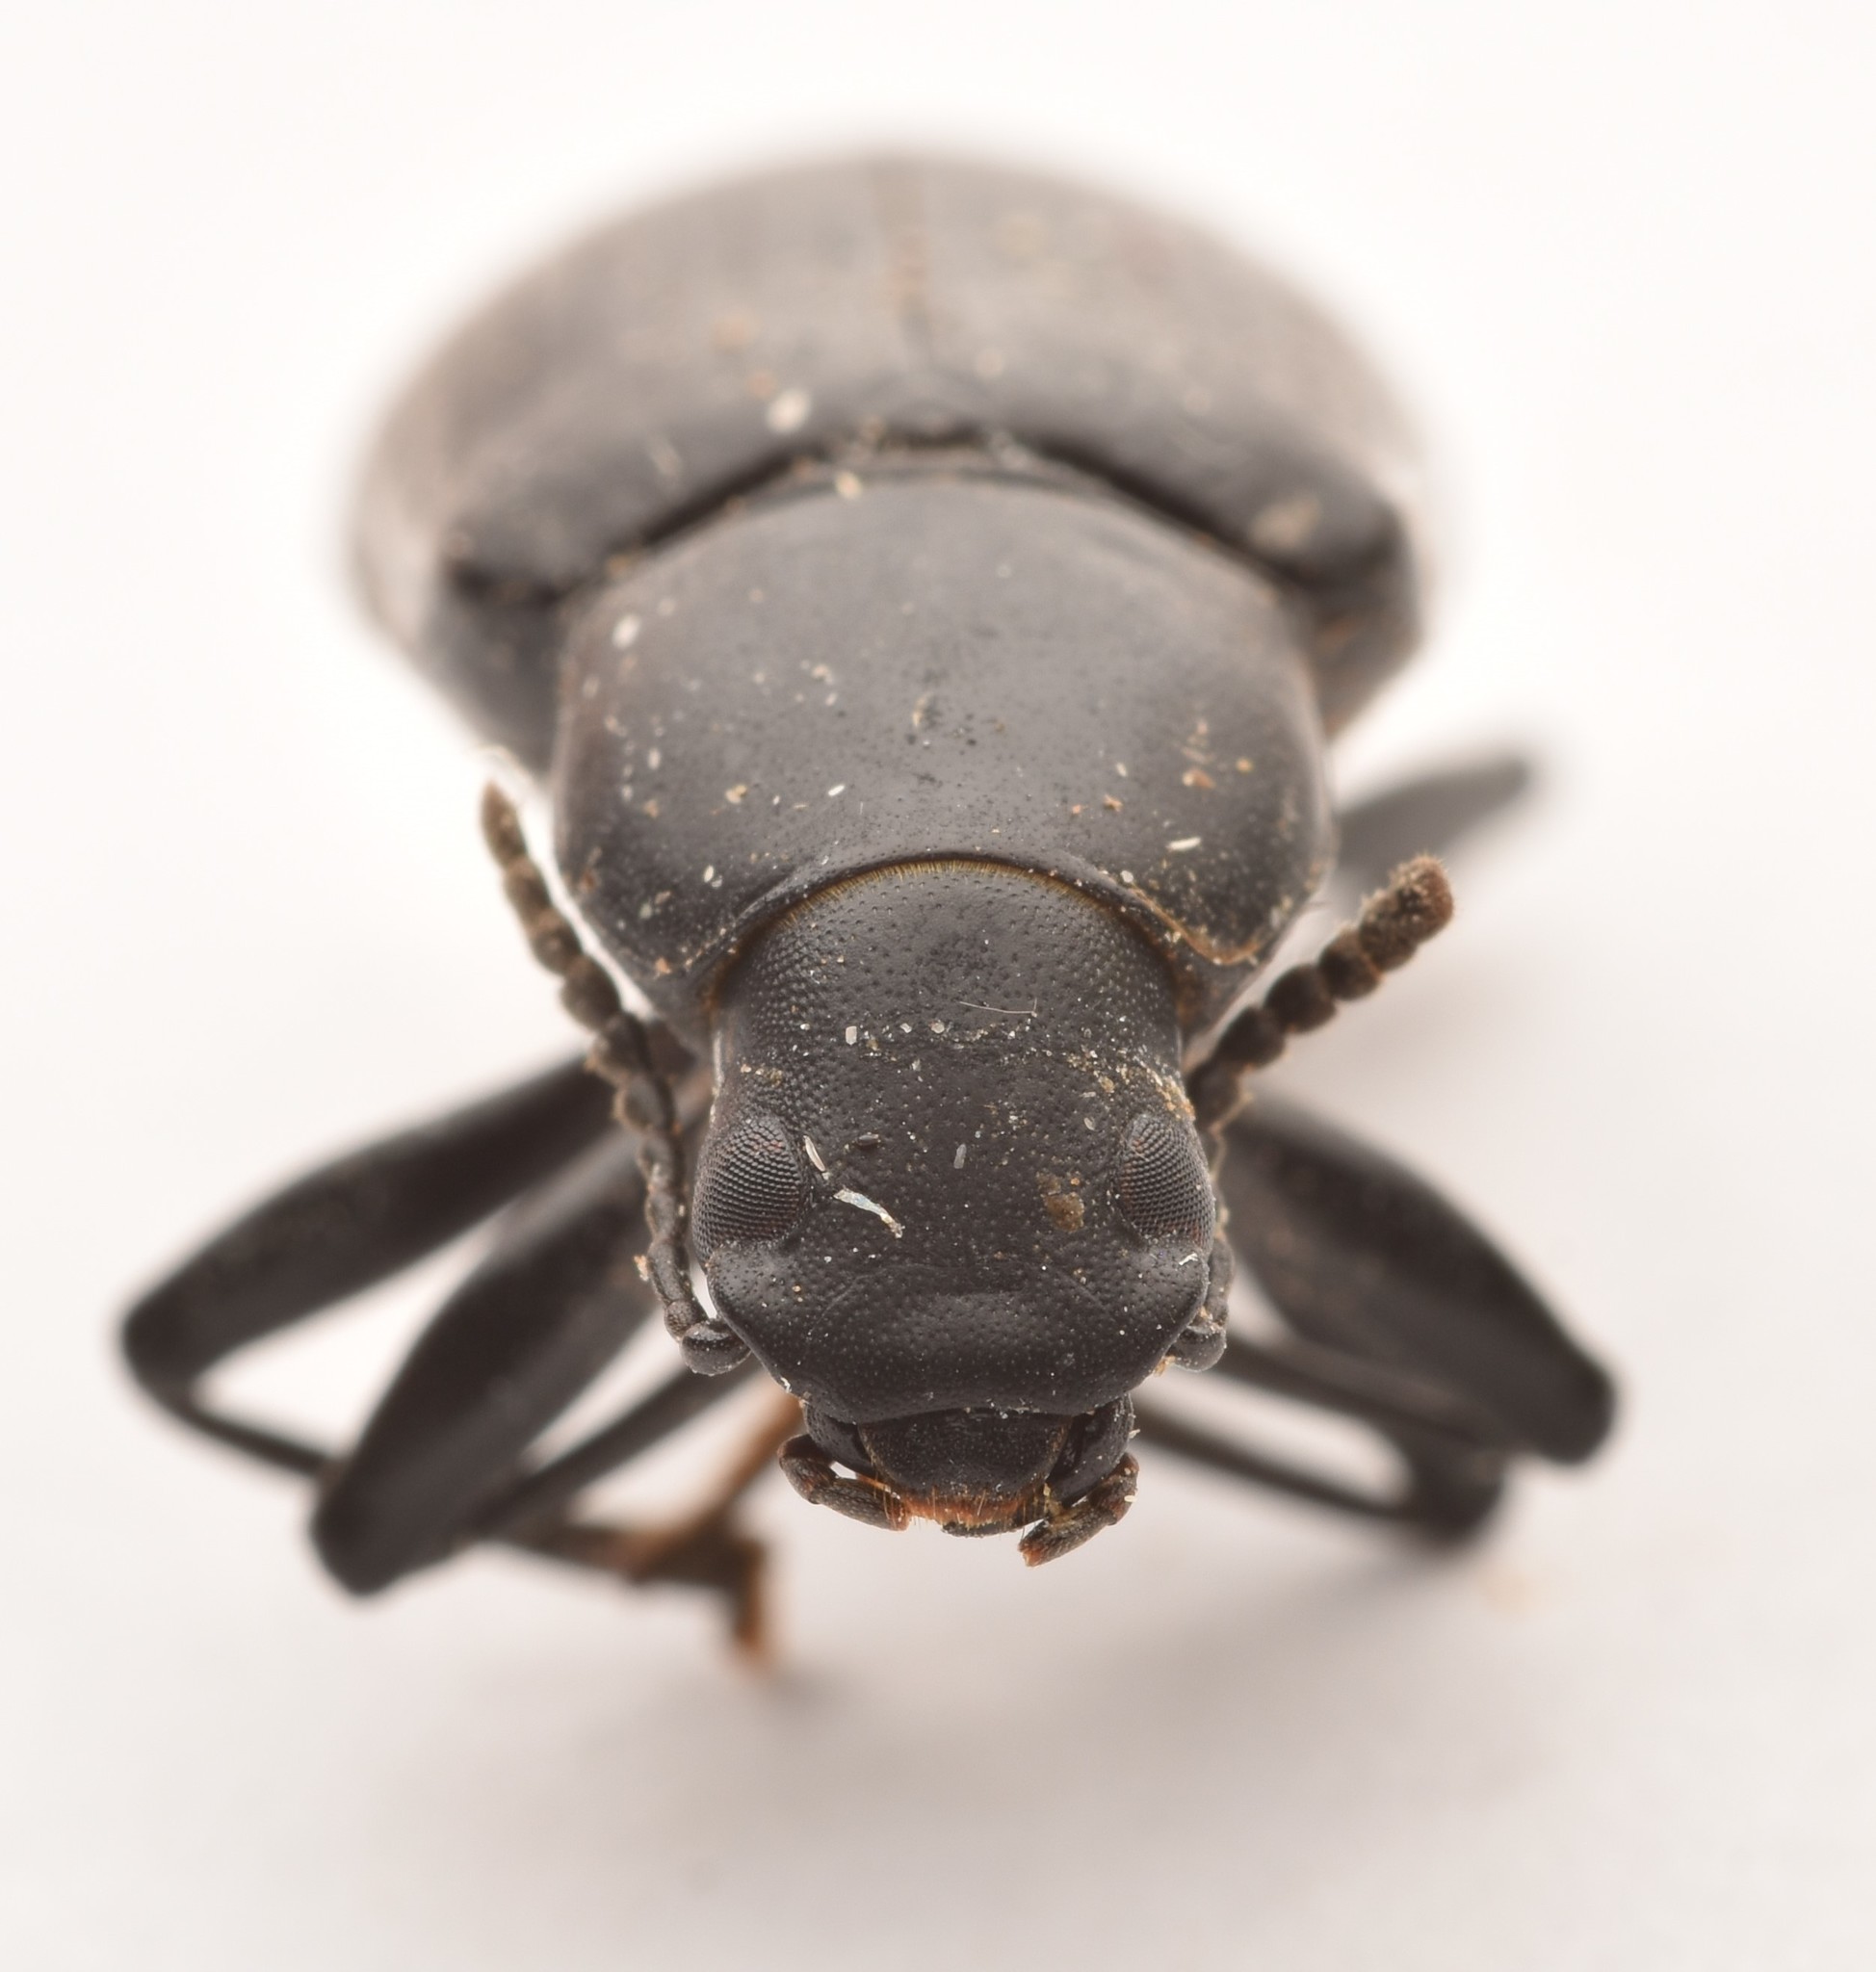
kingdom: Animalia
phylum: Arthropoda
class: Insecta
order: Coleoptera
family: Tenebrionidae
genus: Alobates
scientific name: Alobates pensylvanicus
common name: False mealworm beetle
